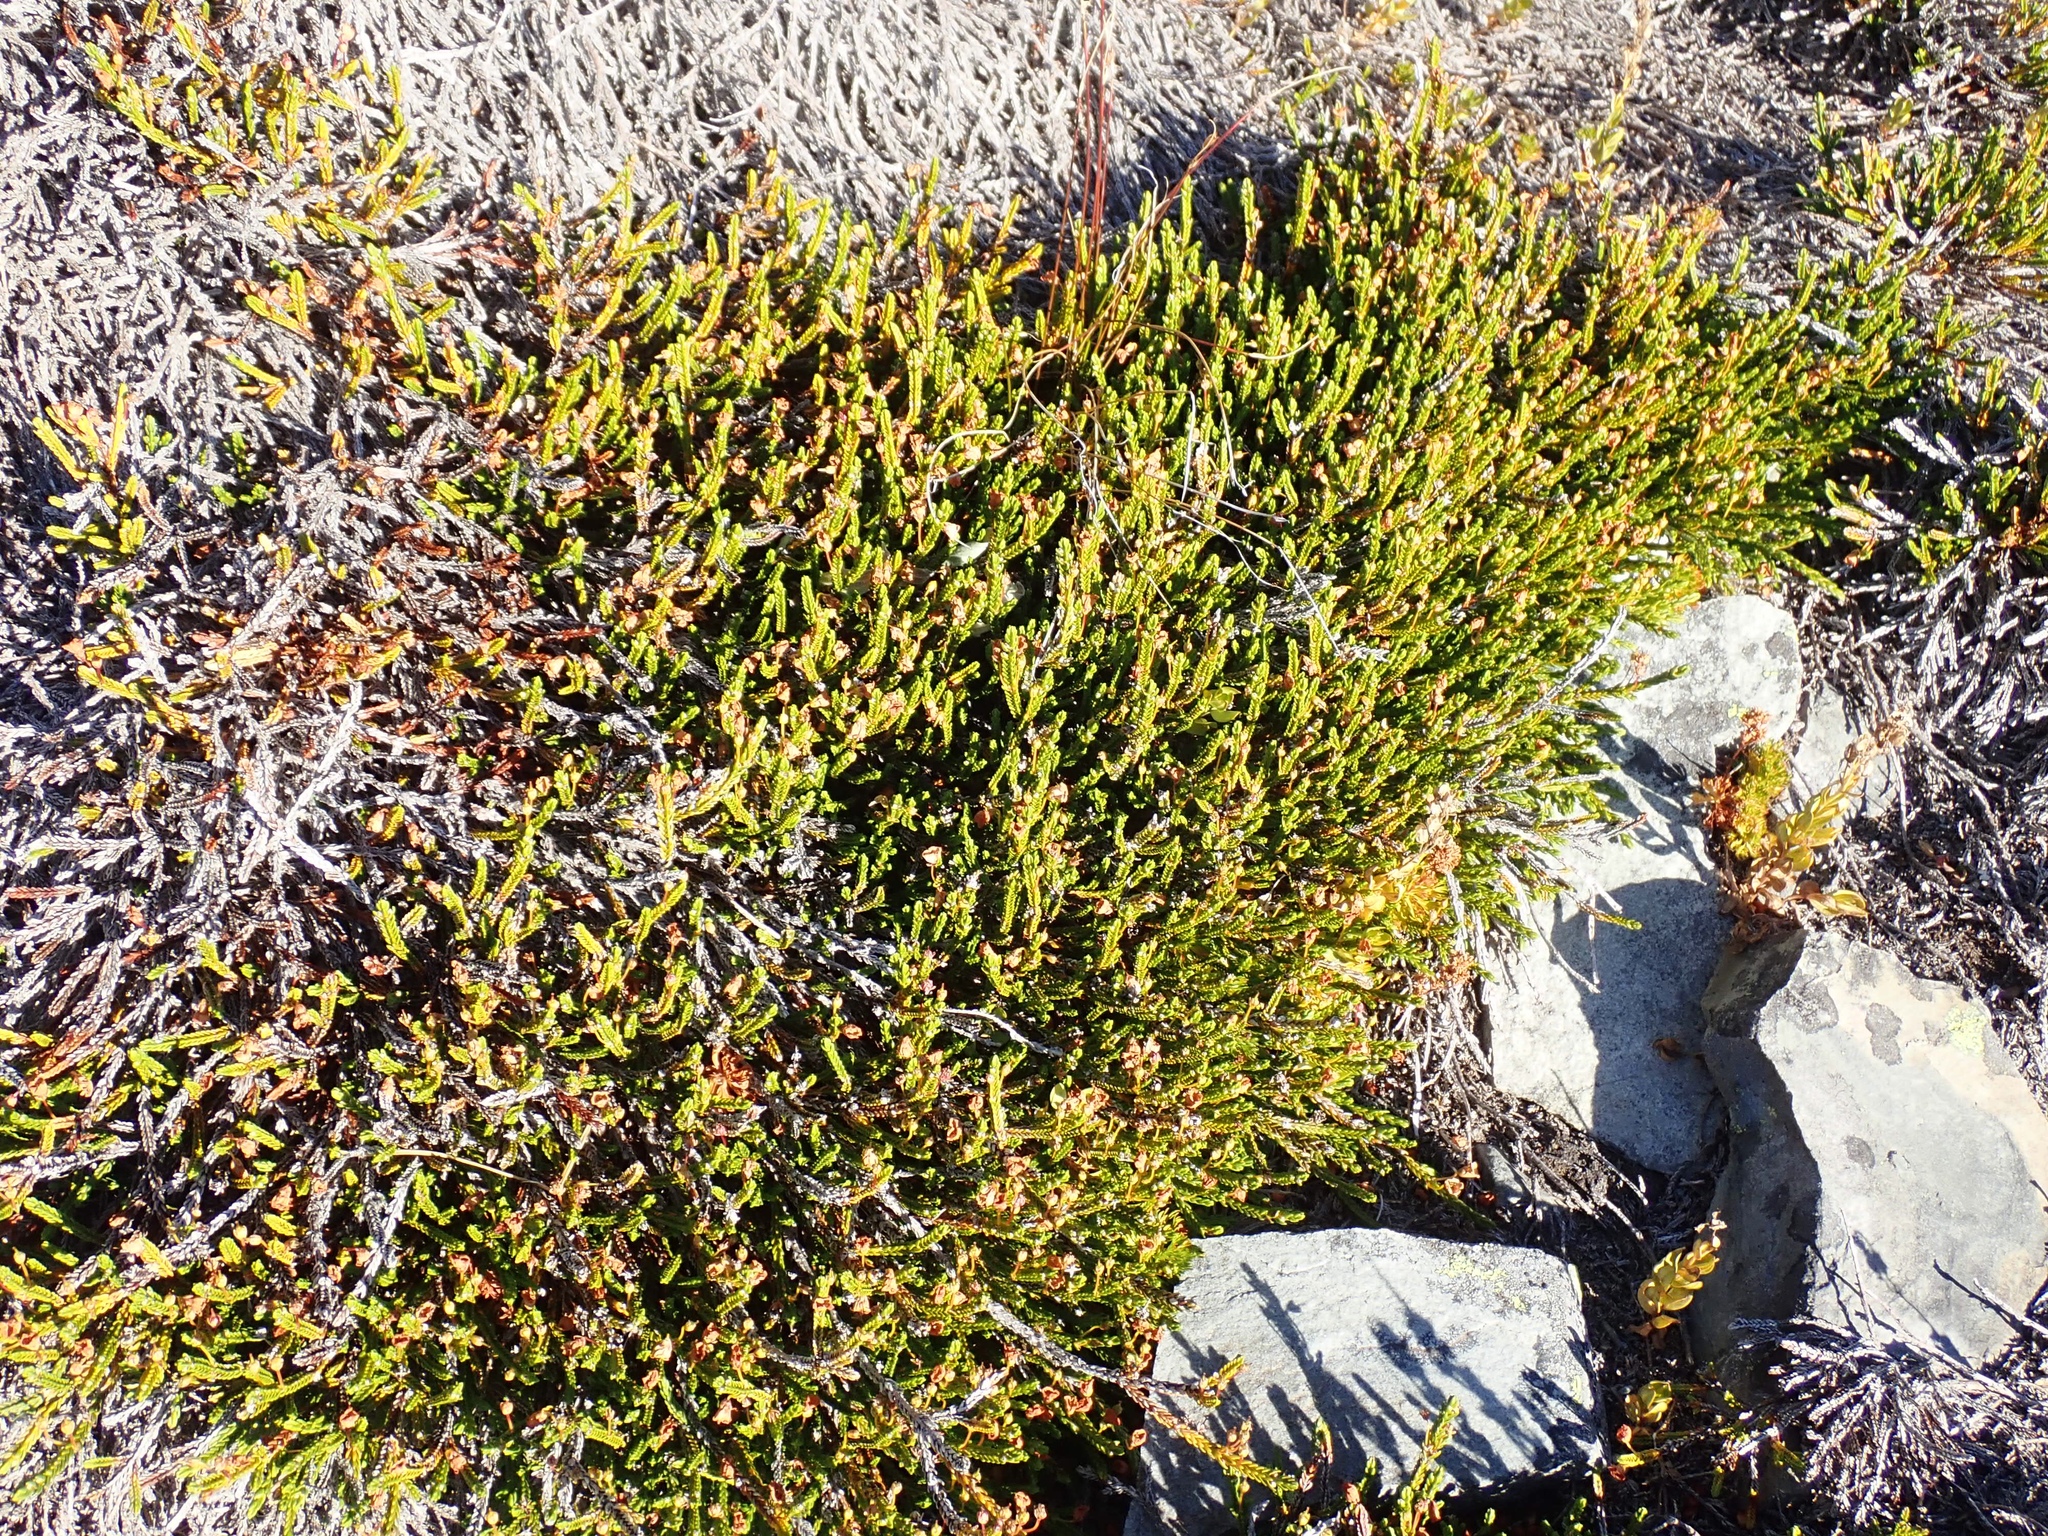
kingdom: Plantae
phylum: Tracheophyta
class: Magnoliopsida
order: Ericales
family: Ericaceae
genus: Cassiope
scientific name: Cassiope mertensiana
